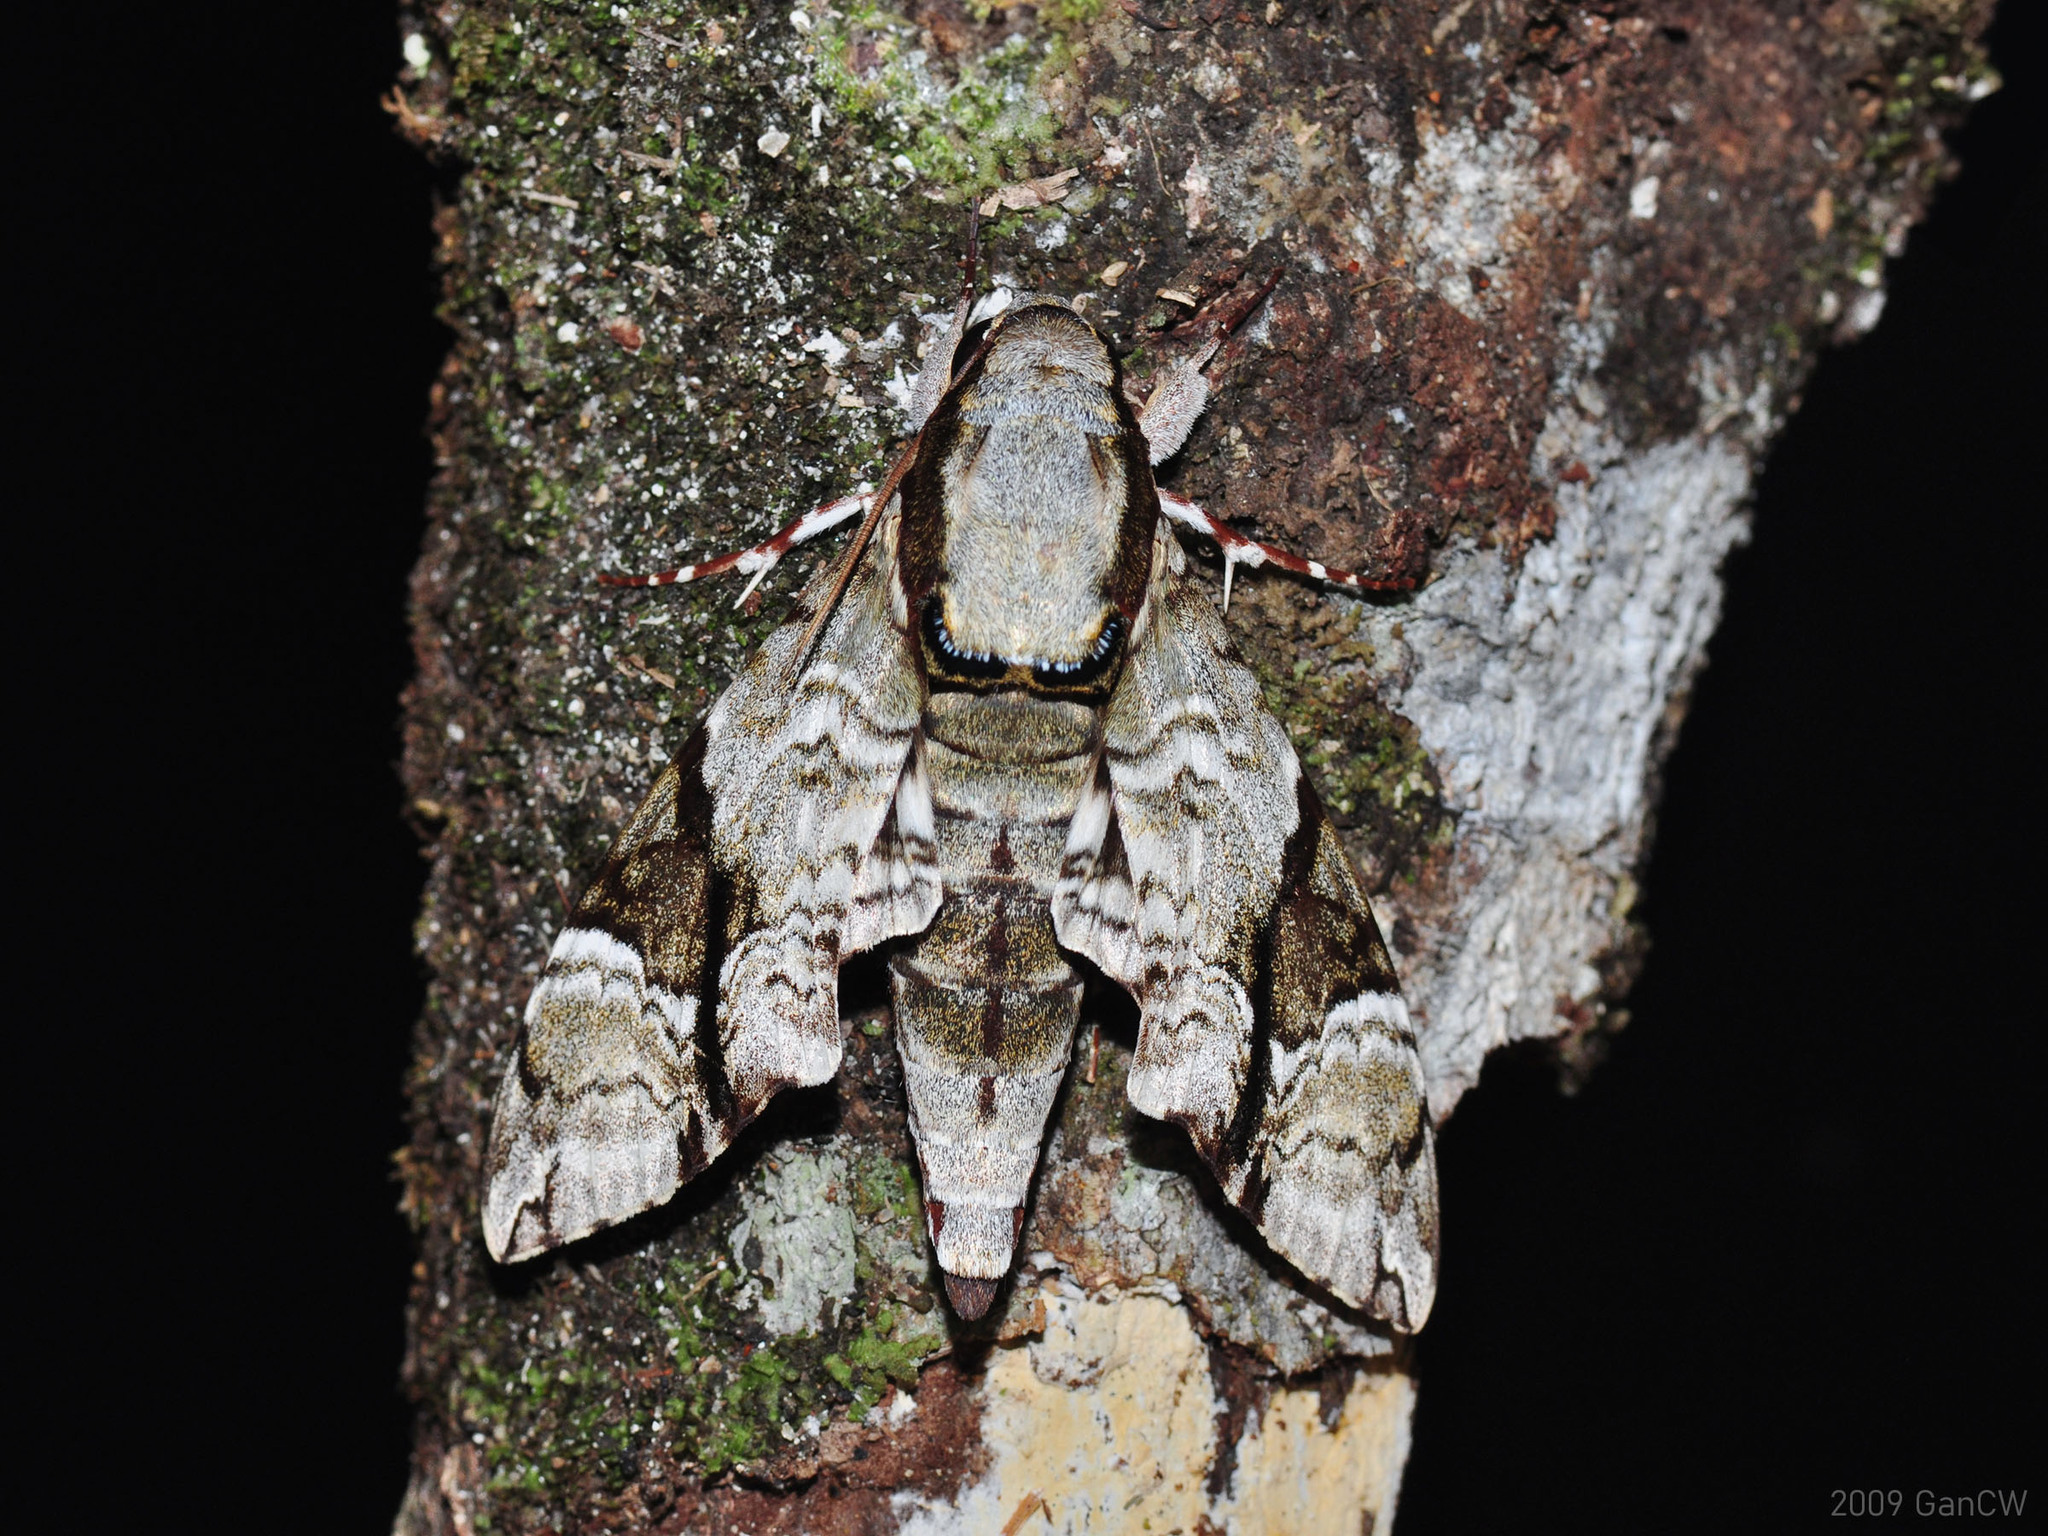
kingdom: Animalia
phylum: Arthropoda
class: Insecta
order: Lepidoptera
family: Sphingidae
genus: Megacorma
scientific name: Megacorma obliqua
